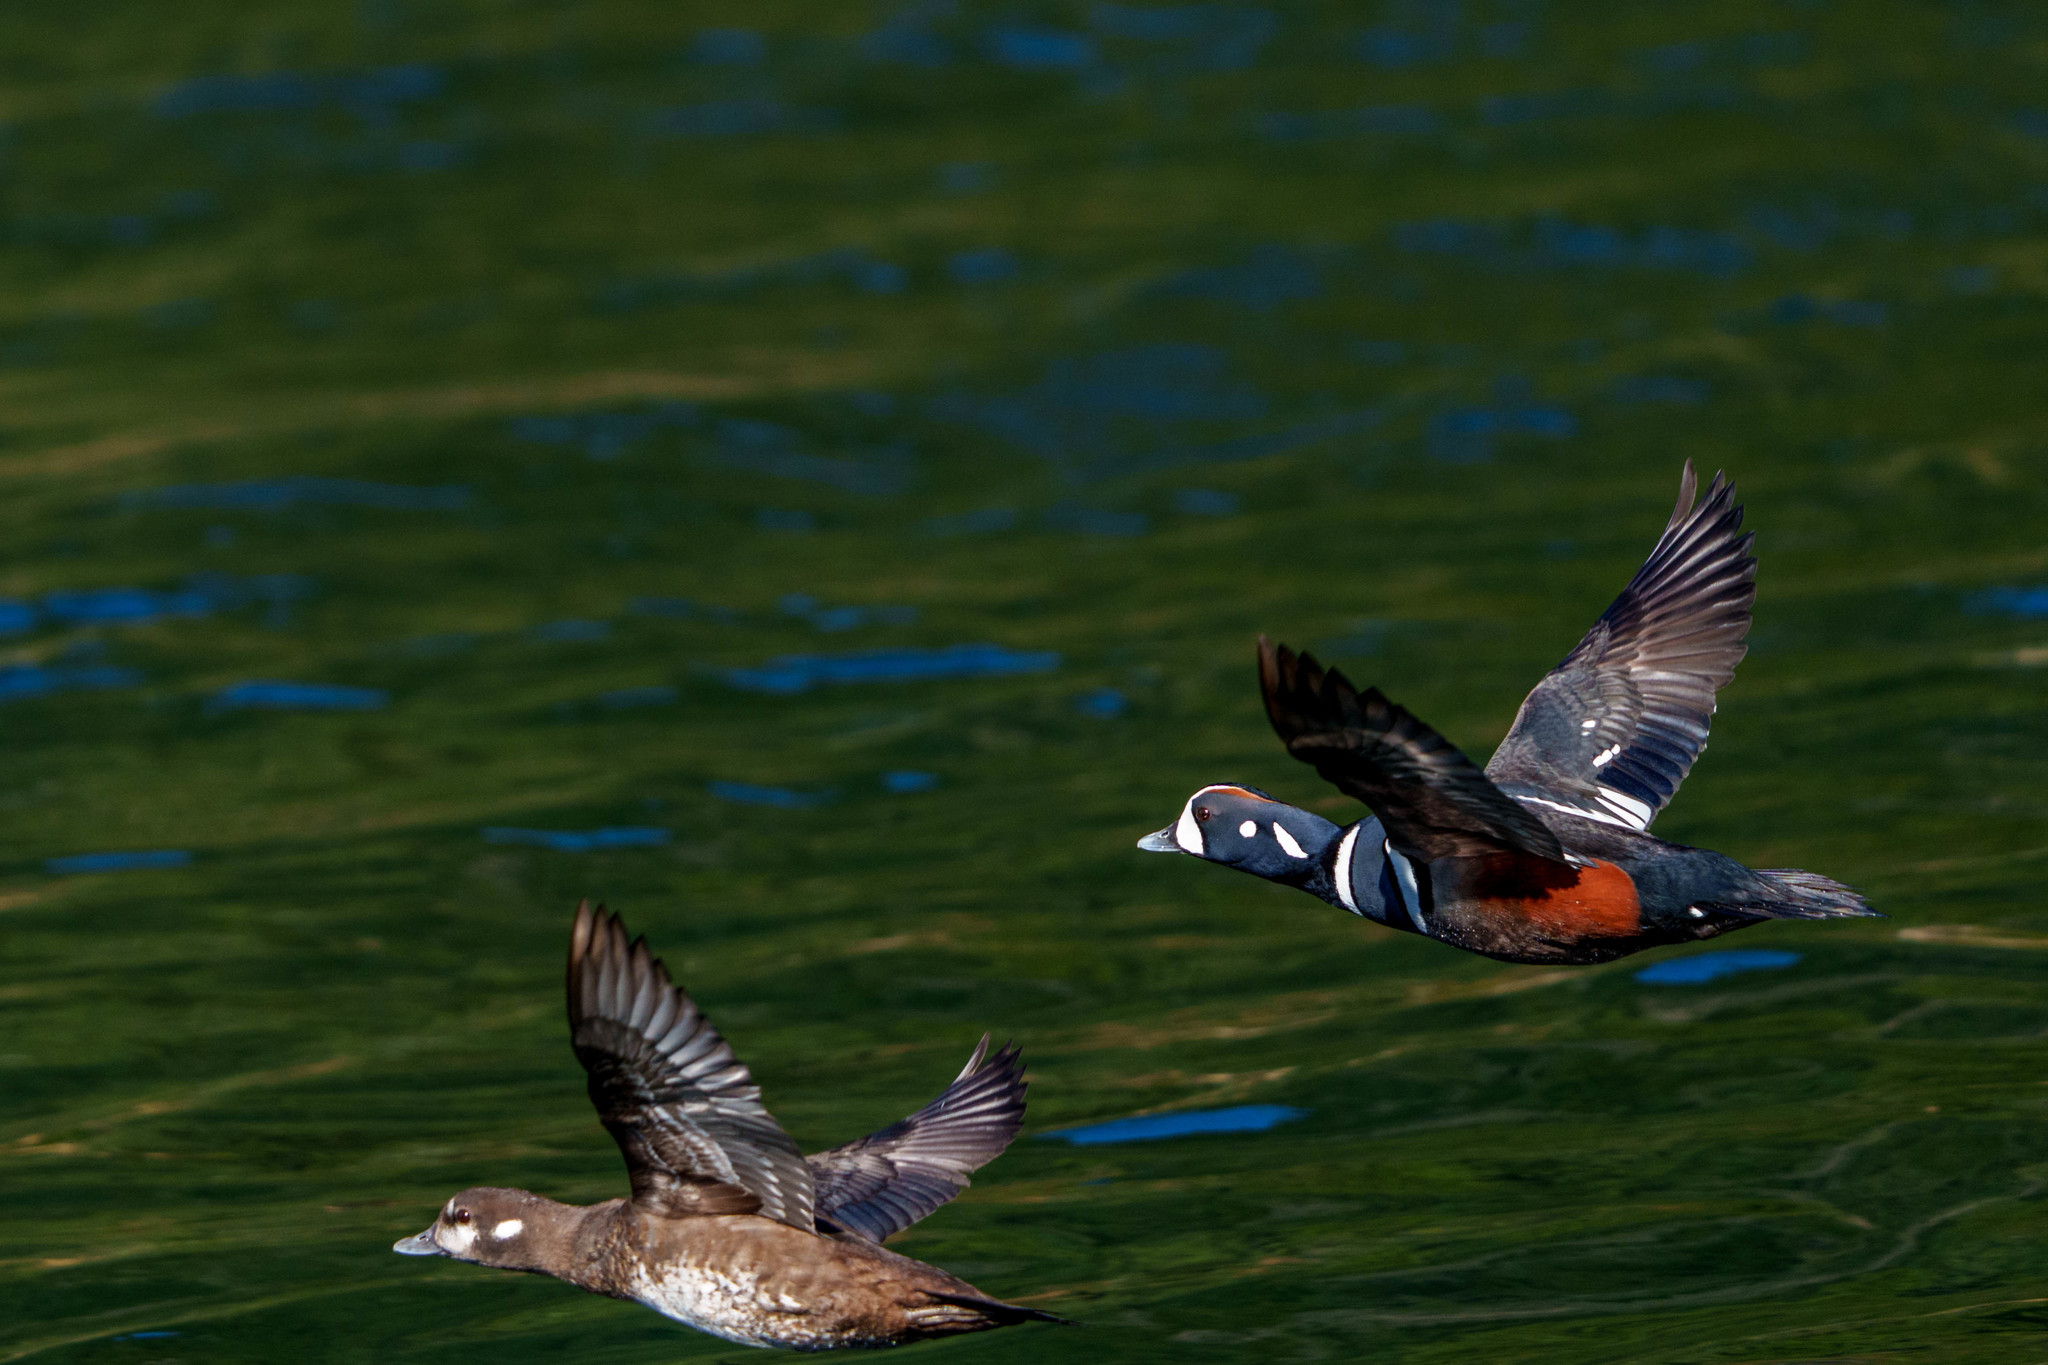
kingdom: Animalia
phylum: Chordata
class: Aves
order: Anseriformes
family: Anatidae
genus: Histrionicus
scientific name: Histrionicus histrionicus
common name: Harlequin duck
